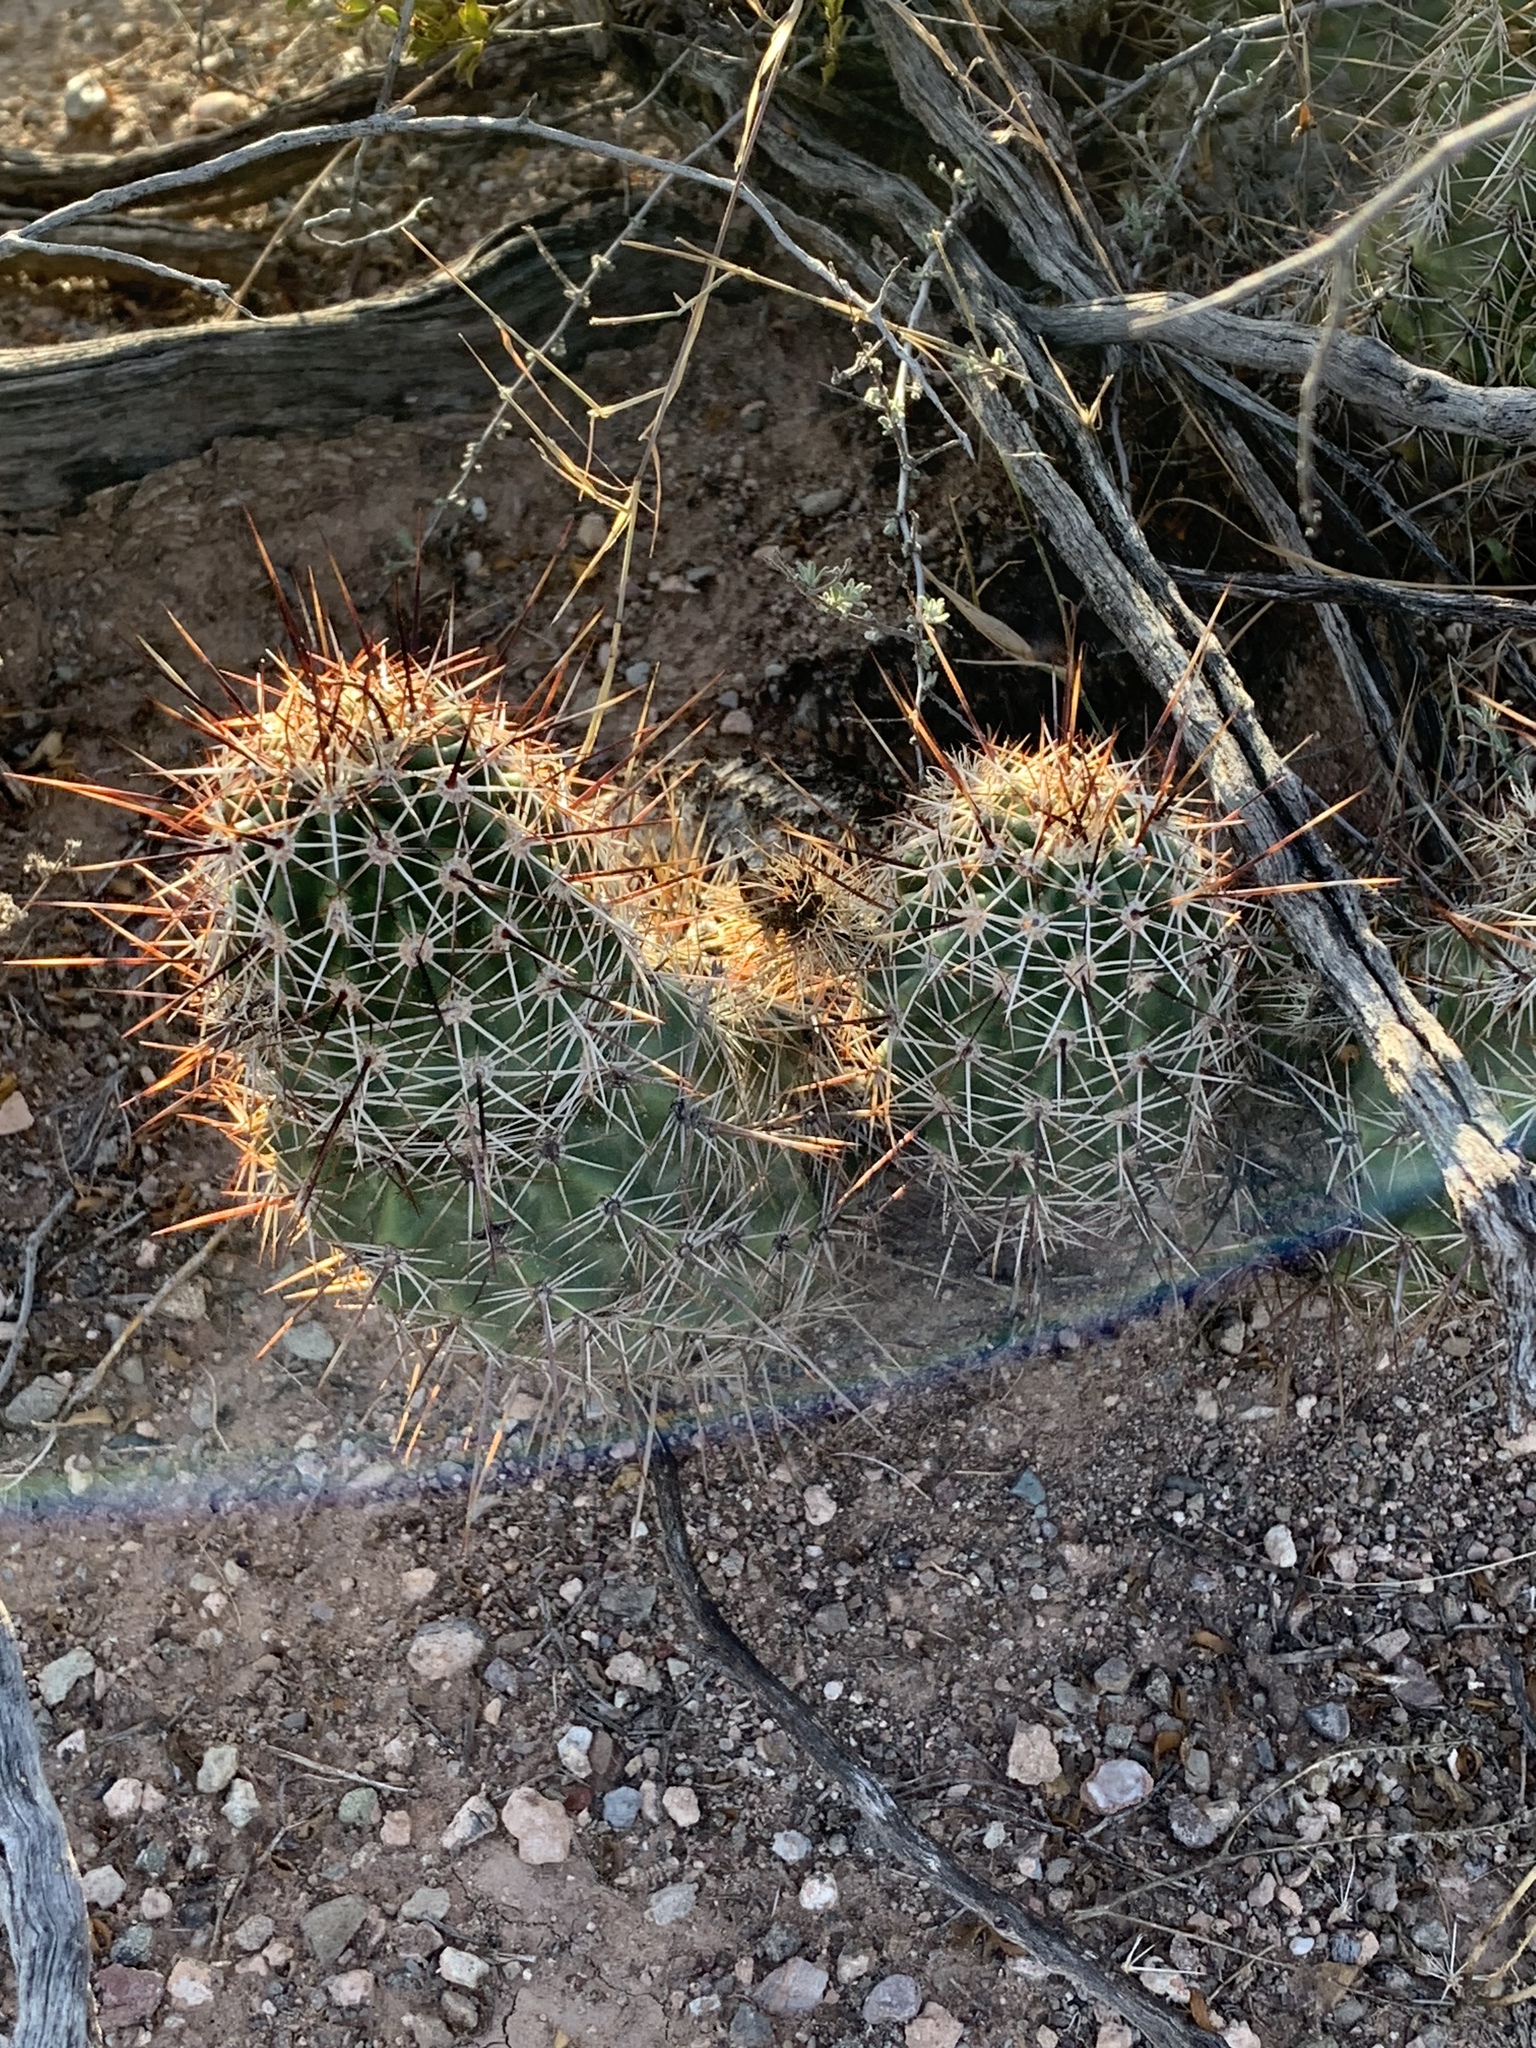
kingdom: Plantae
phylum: Tracheophyta
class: Magnoliopsida
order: Caryophyllales
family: Cactaceae
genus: Echinocereus
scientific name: Echinocereus fasciculatus
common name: Bundle hedgehog
